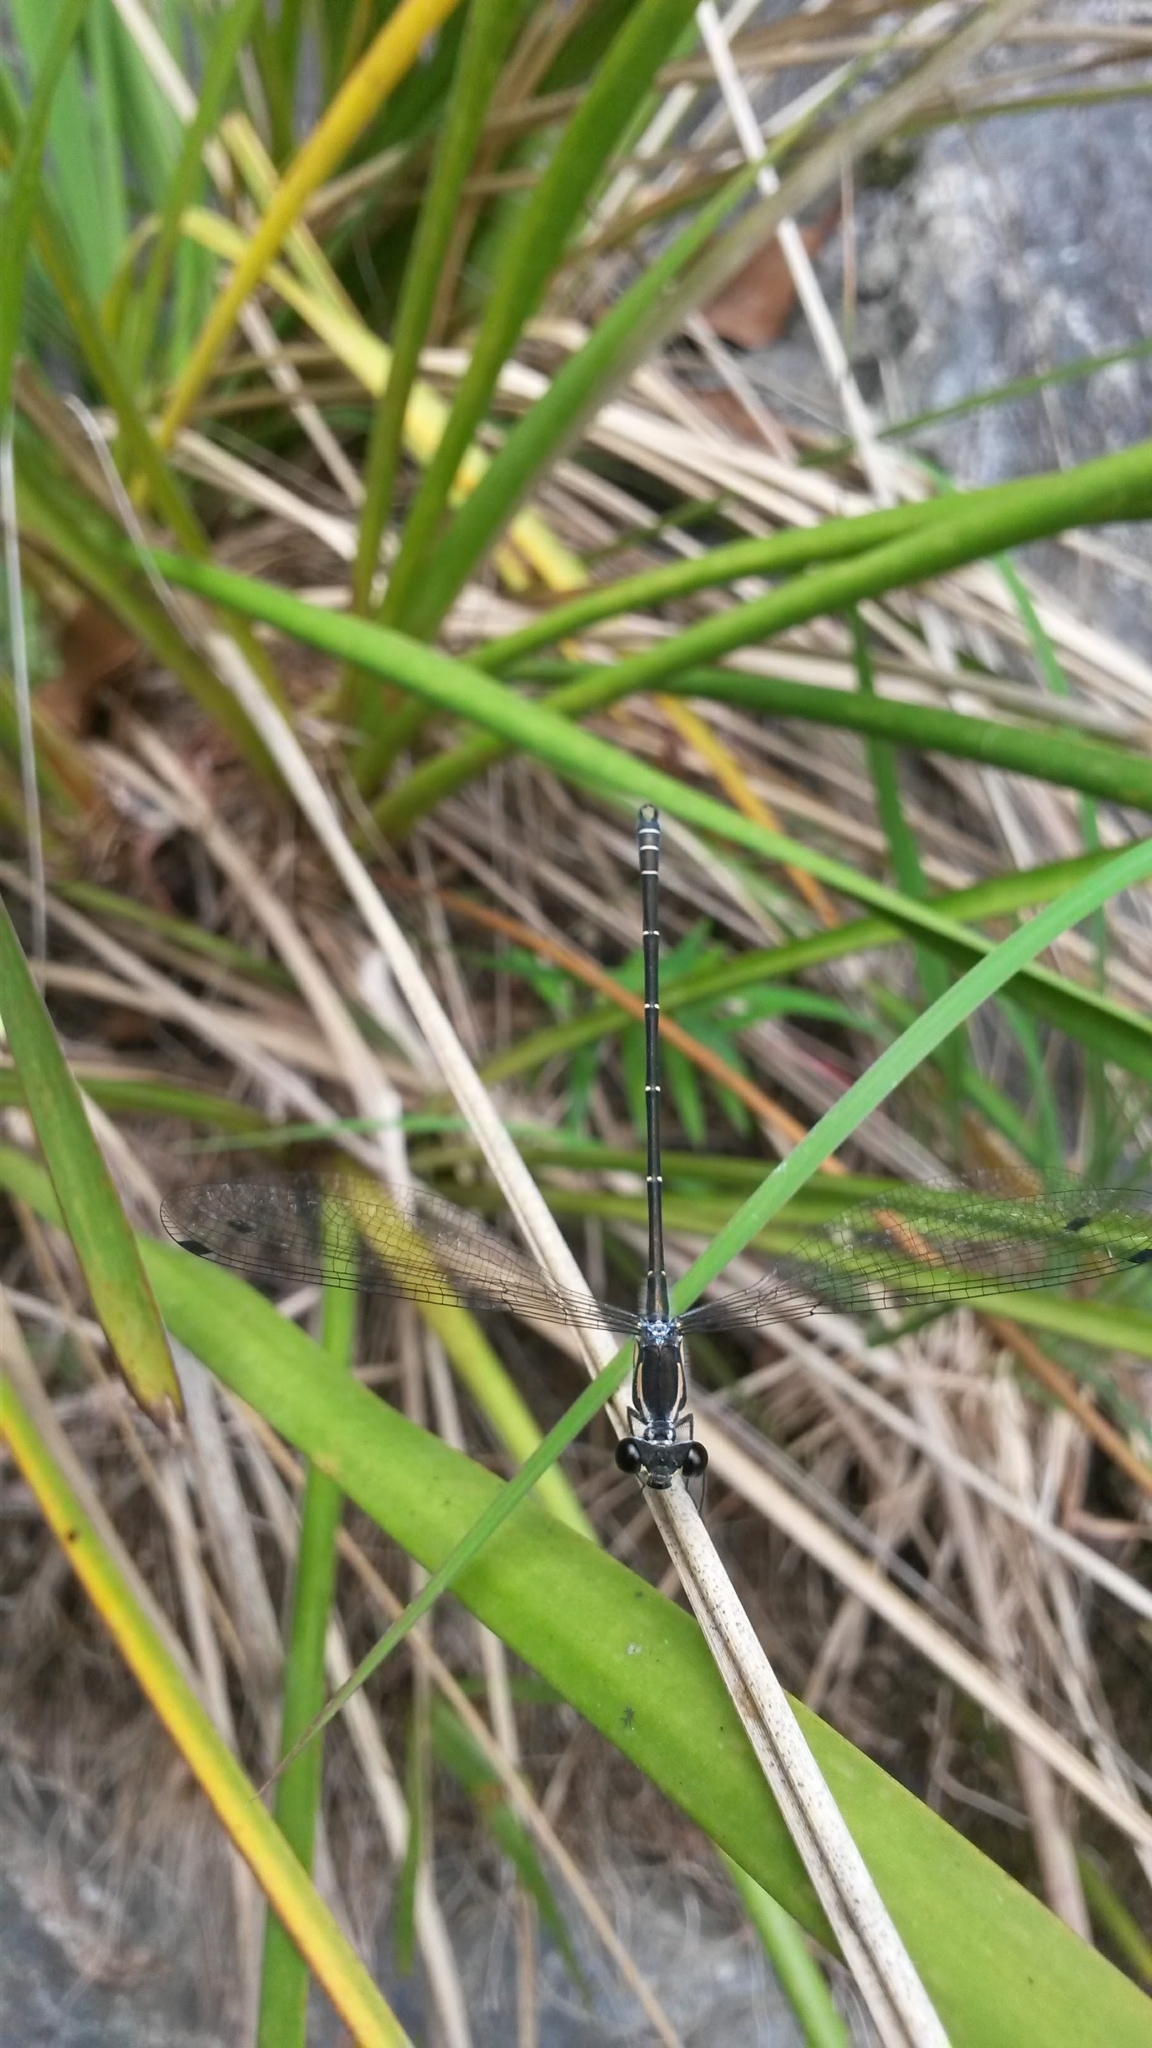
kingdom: Animalia
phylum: Arthropoda
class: Insecta
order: Odonata
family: Argiolestidae
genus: Austroargiolestes
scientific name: Austroargiolestes icteromelas
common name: Common flatwing
